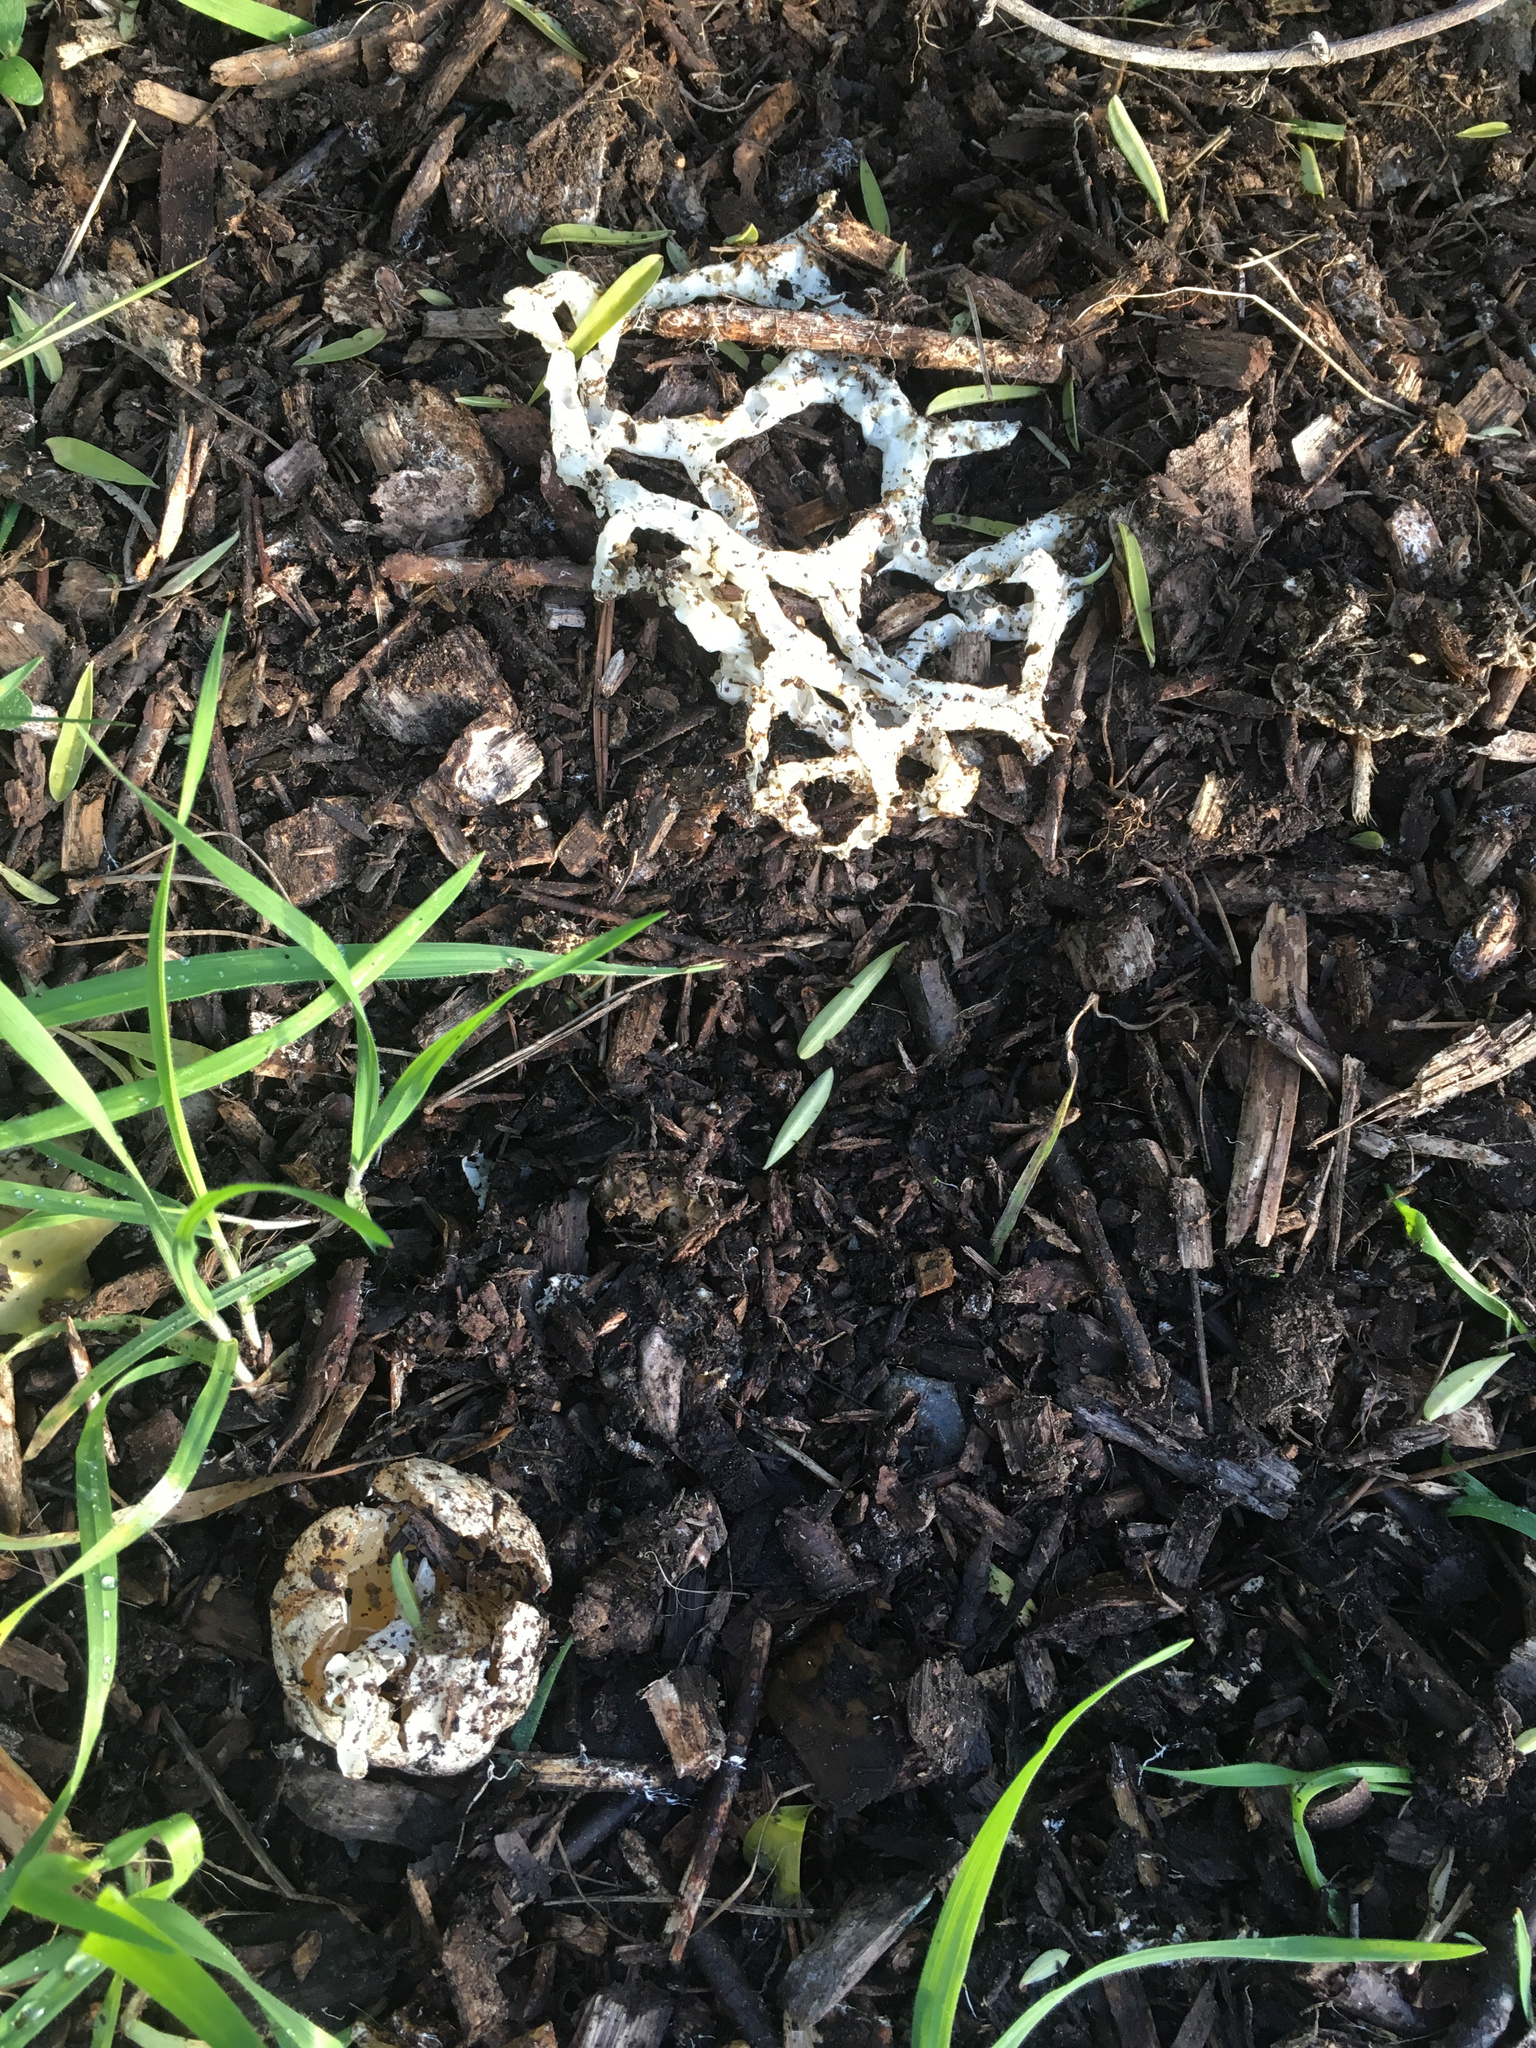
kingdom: Fungi
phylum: Basidiomycota
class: Agaricomycetes
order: Phallales
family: Phallaceae
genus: Ileodictyon
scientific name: Ileodictyon cibarium
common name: Basket fungus
